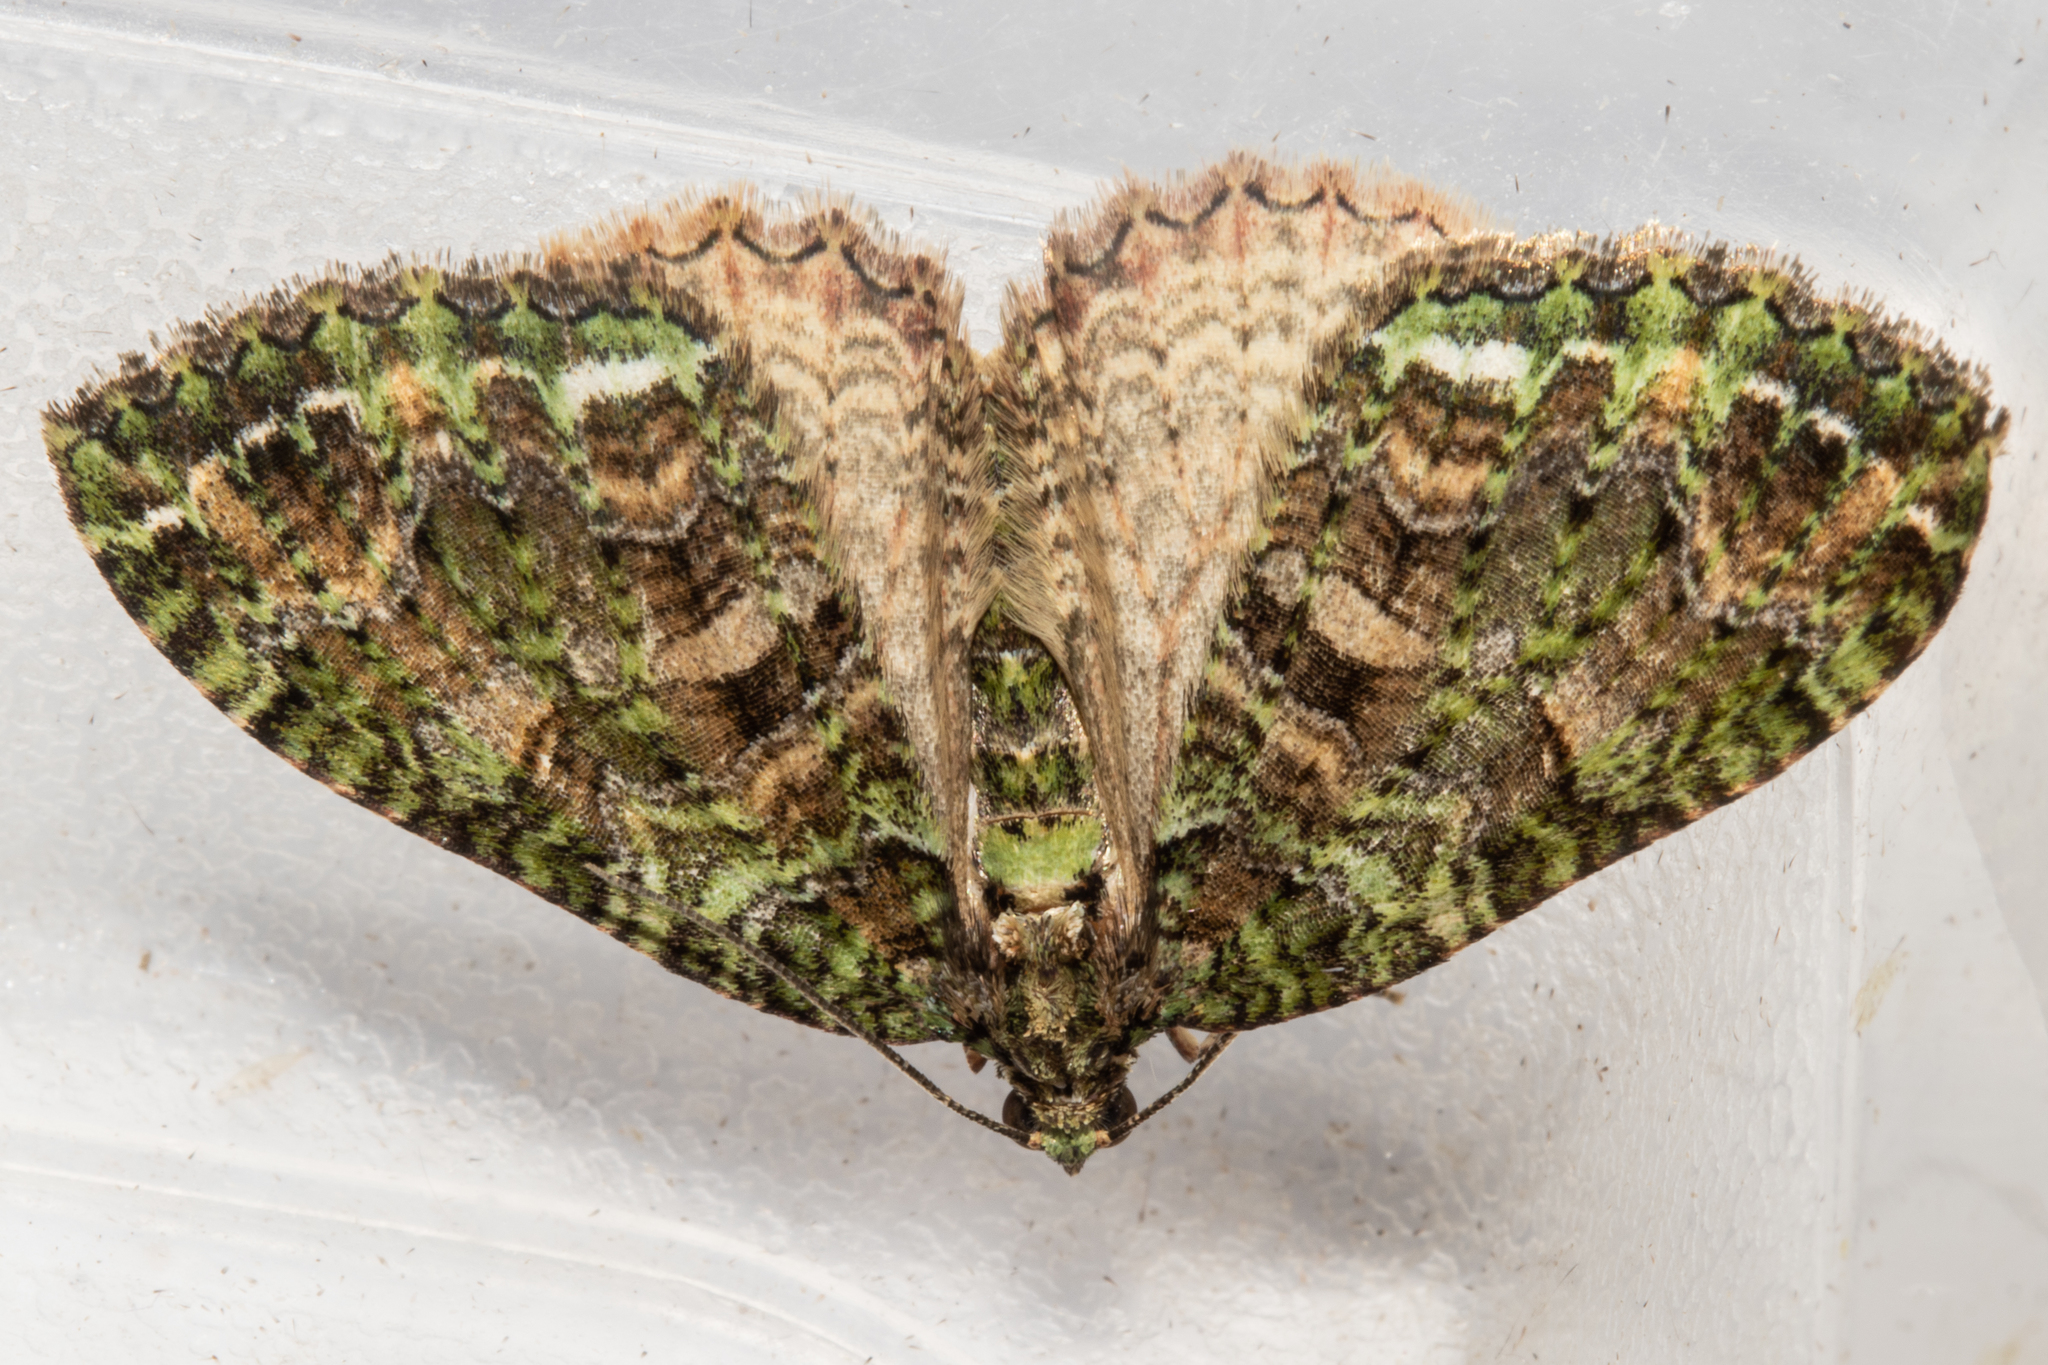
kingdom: Animalia
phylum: Arthropoda
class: Insecta
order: Lepidoptera
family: Geometridae
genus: Austrocidaria
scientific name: Austrocidaria similata
